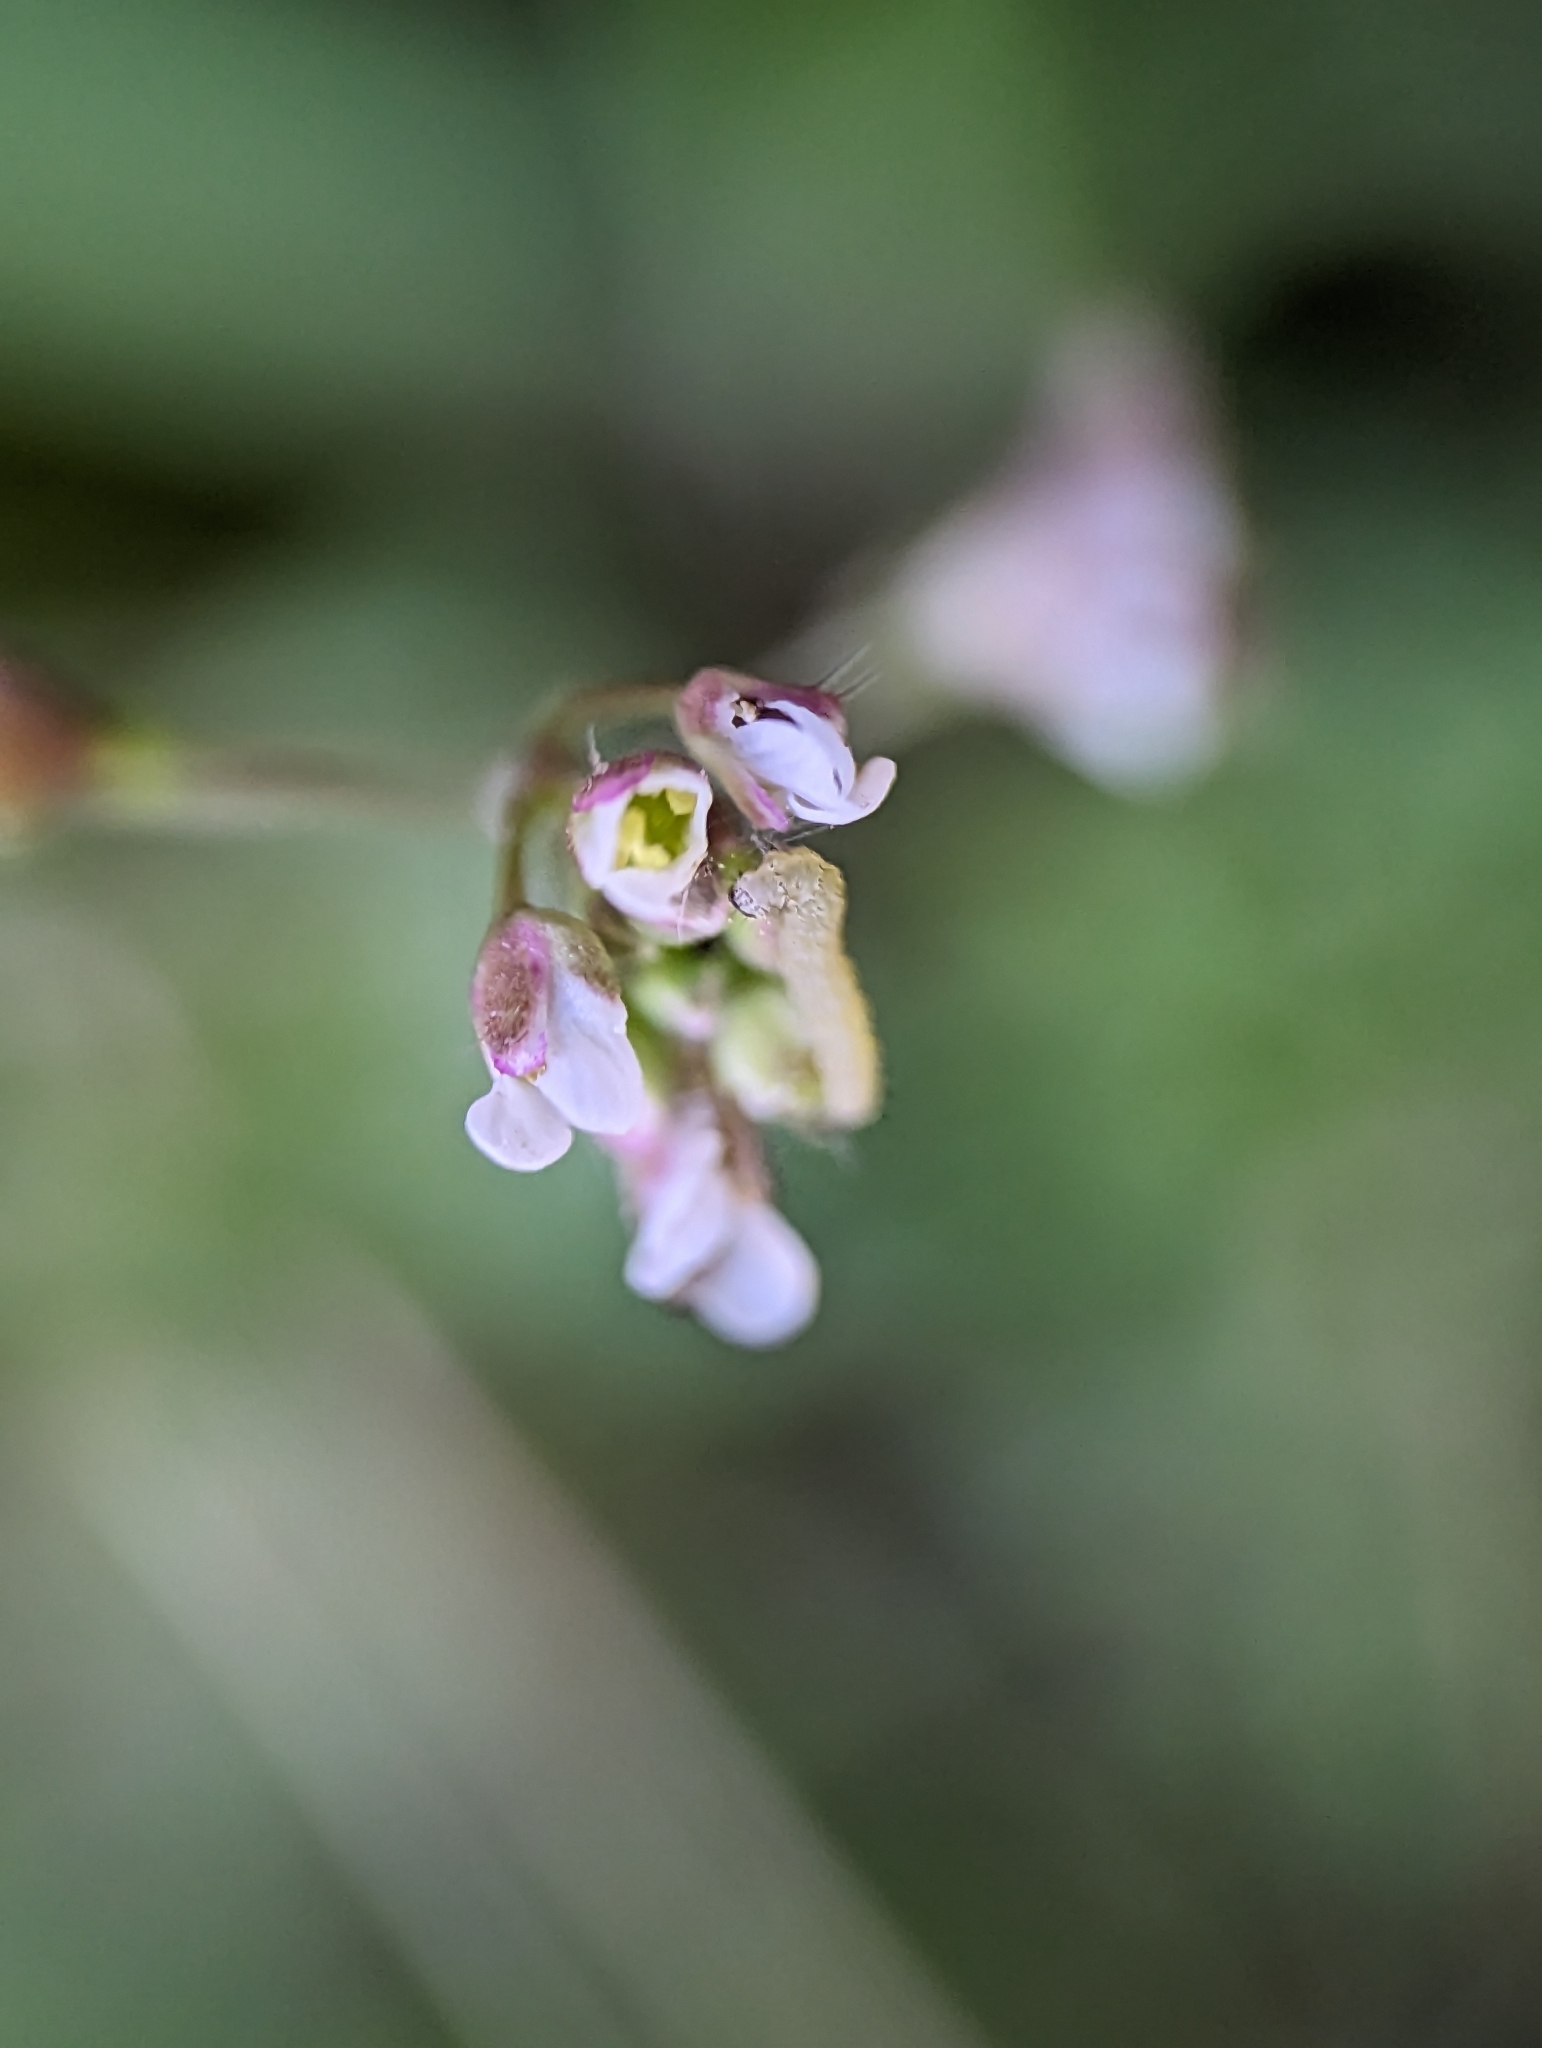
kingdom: Plantae
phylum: Tracheophyta
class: Magnoliopsida
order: Brassicales
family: Brassicaceae
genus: Capsella
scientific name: Capsella bursa-pastoris
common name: Shepherd's purse
